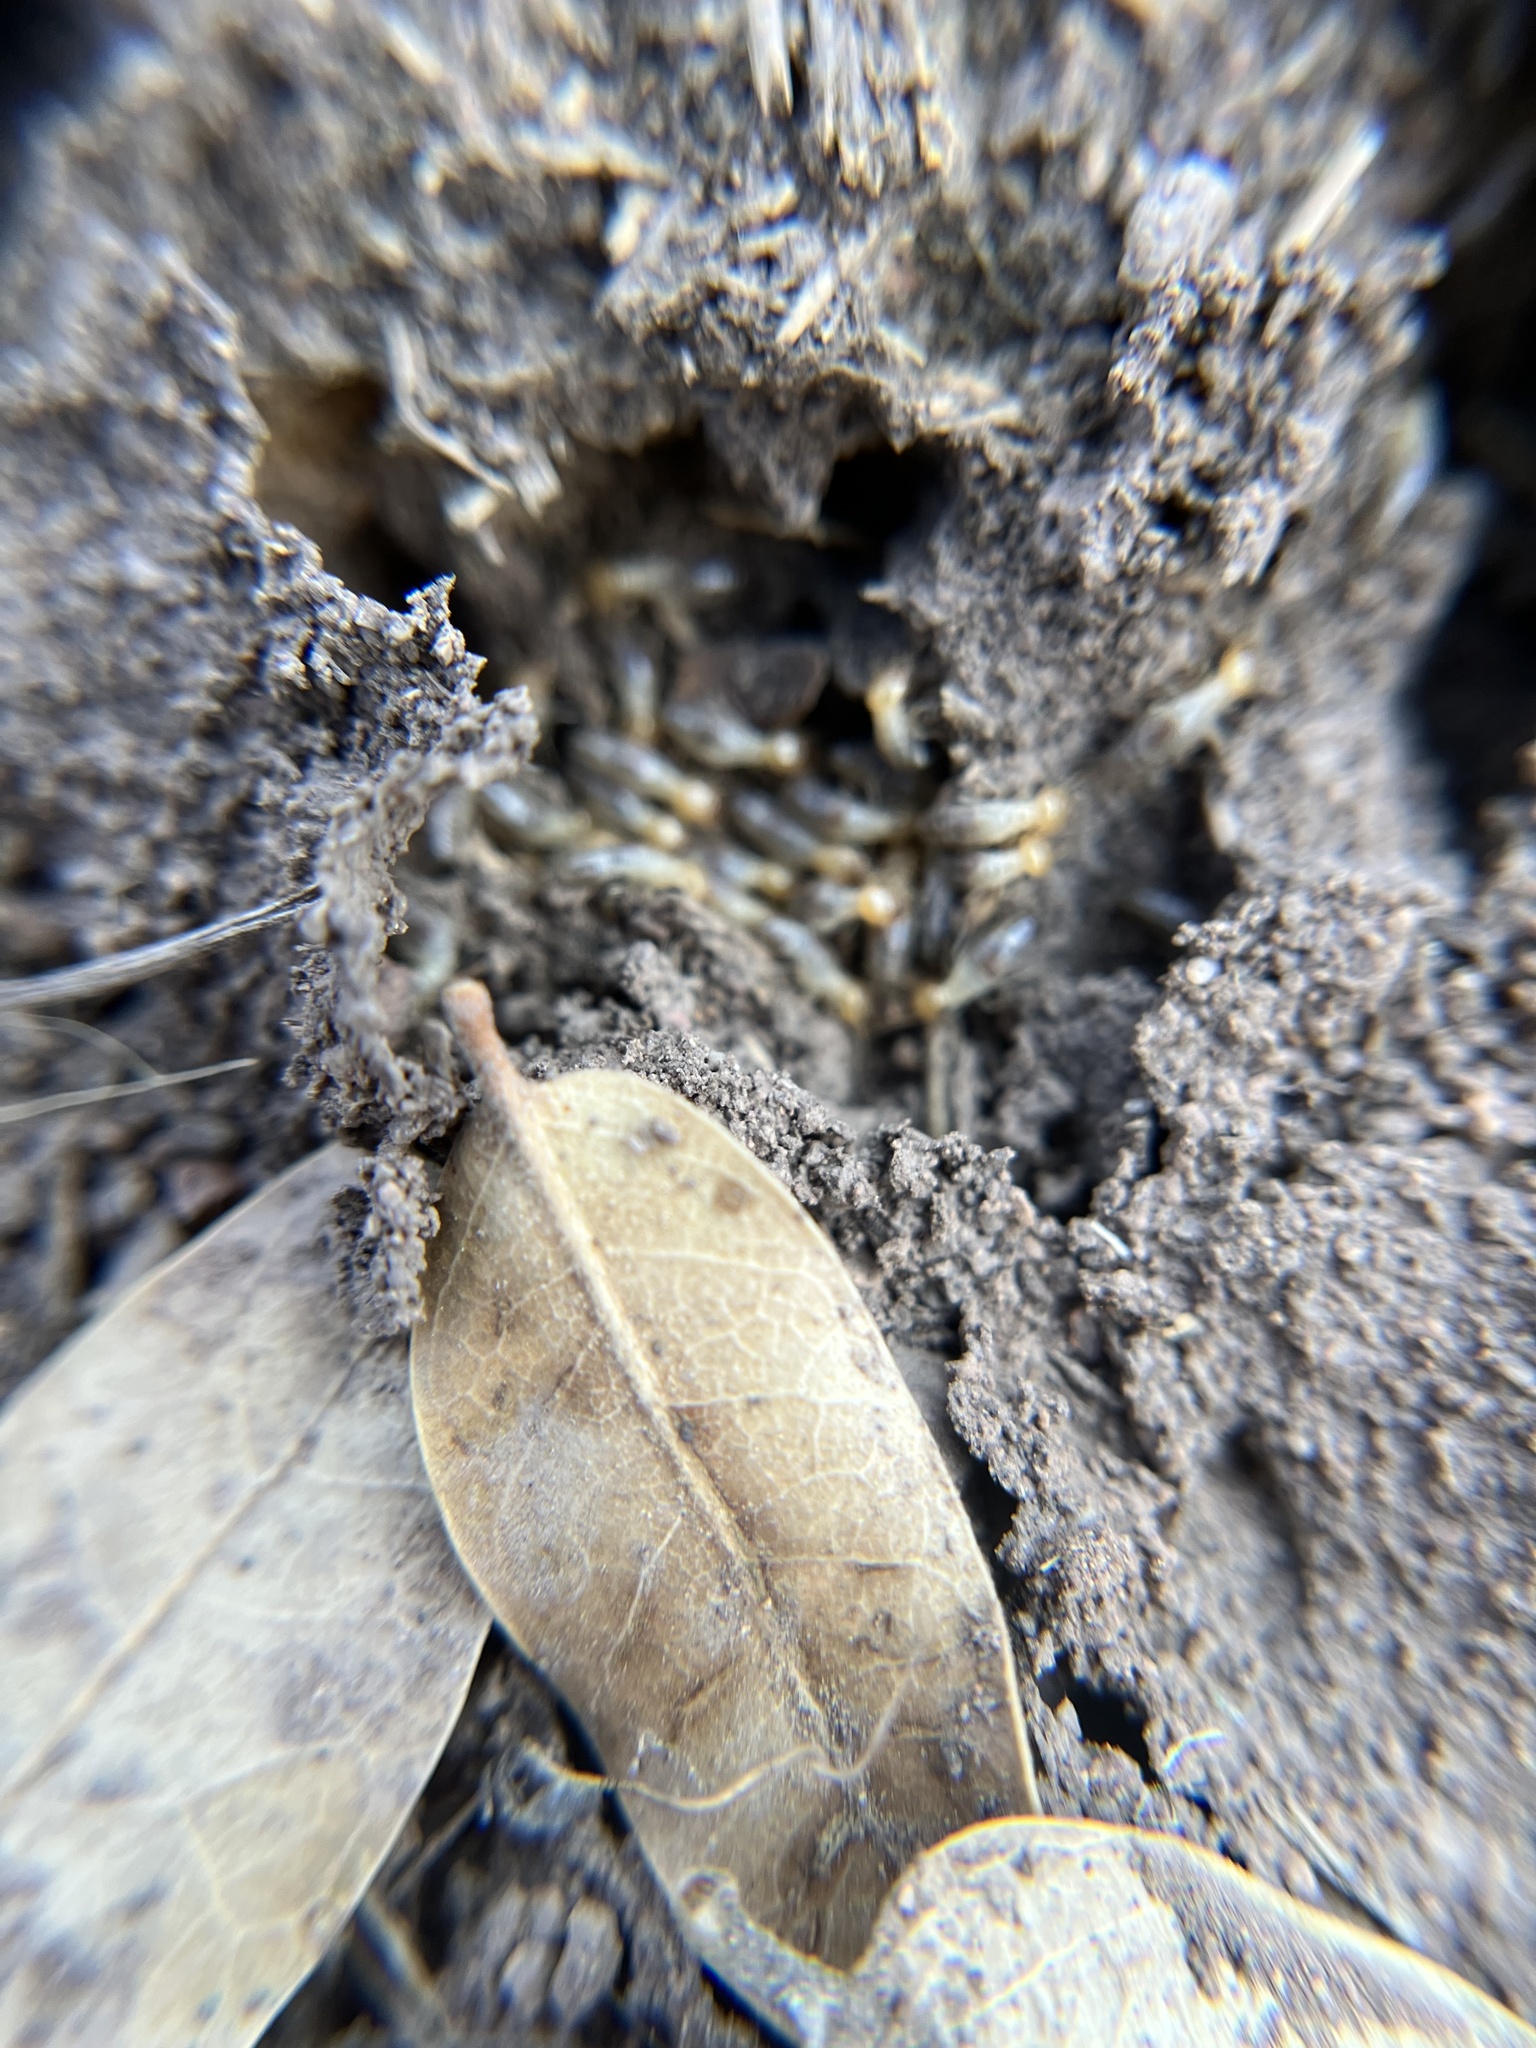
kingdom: Animalia
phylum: Arthropoda
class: Insecta
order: Blattodea
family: Termitidae
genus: Gnathamitermes
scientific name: Gnathamitermes
